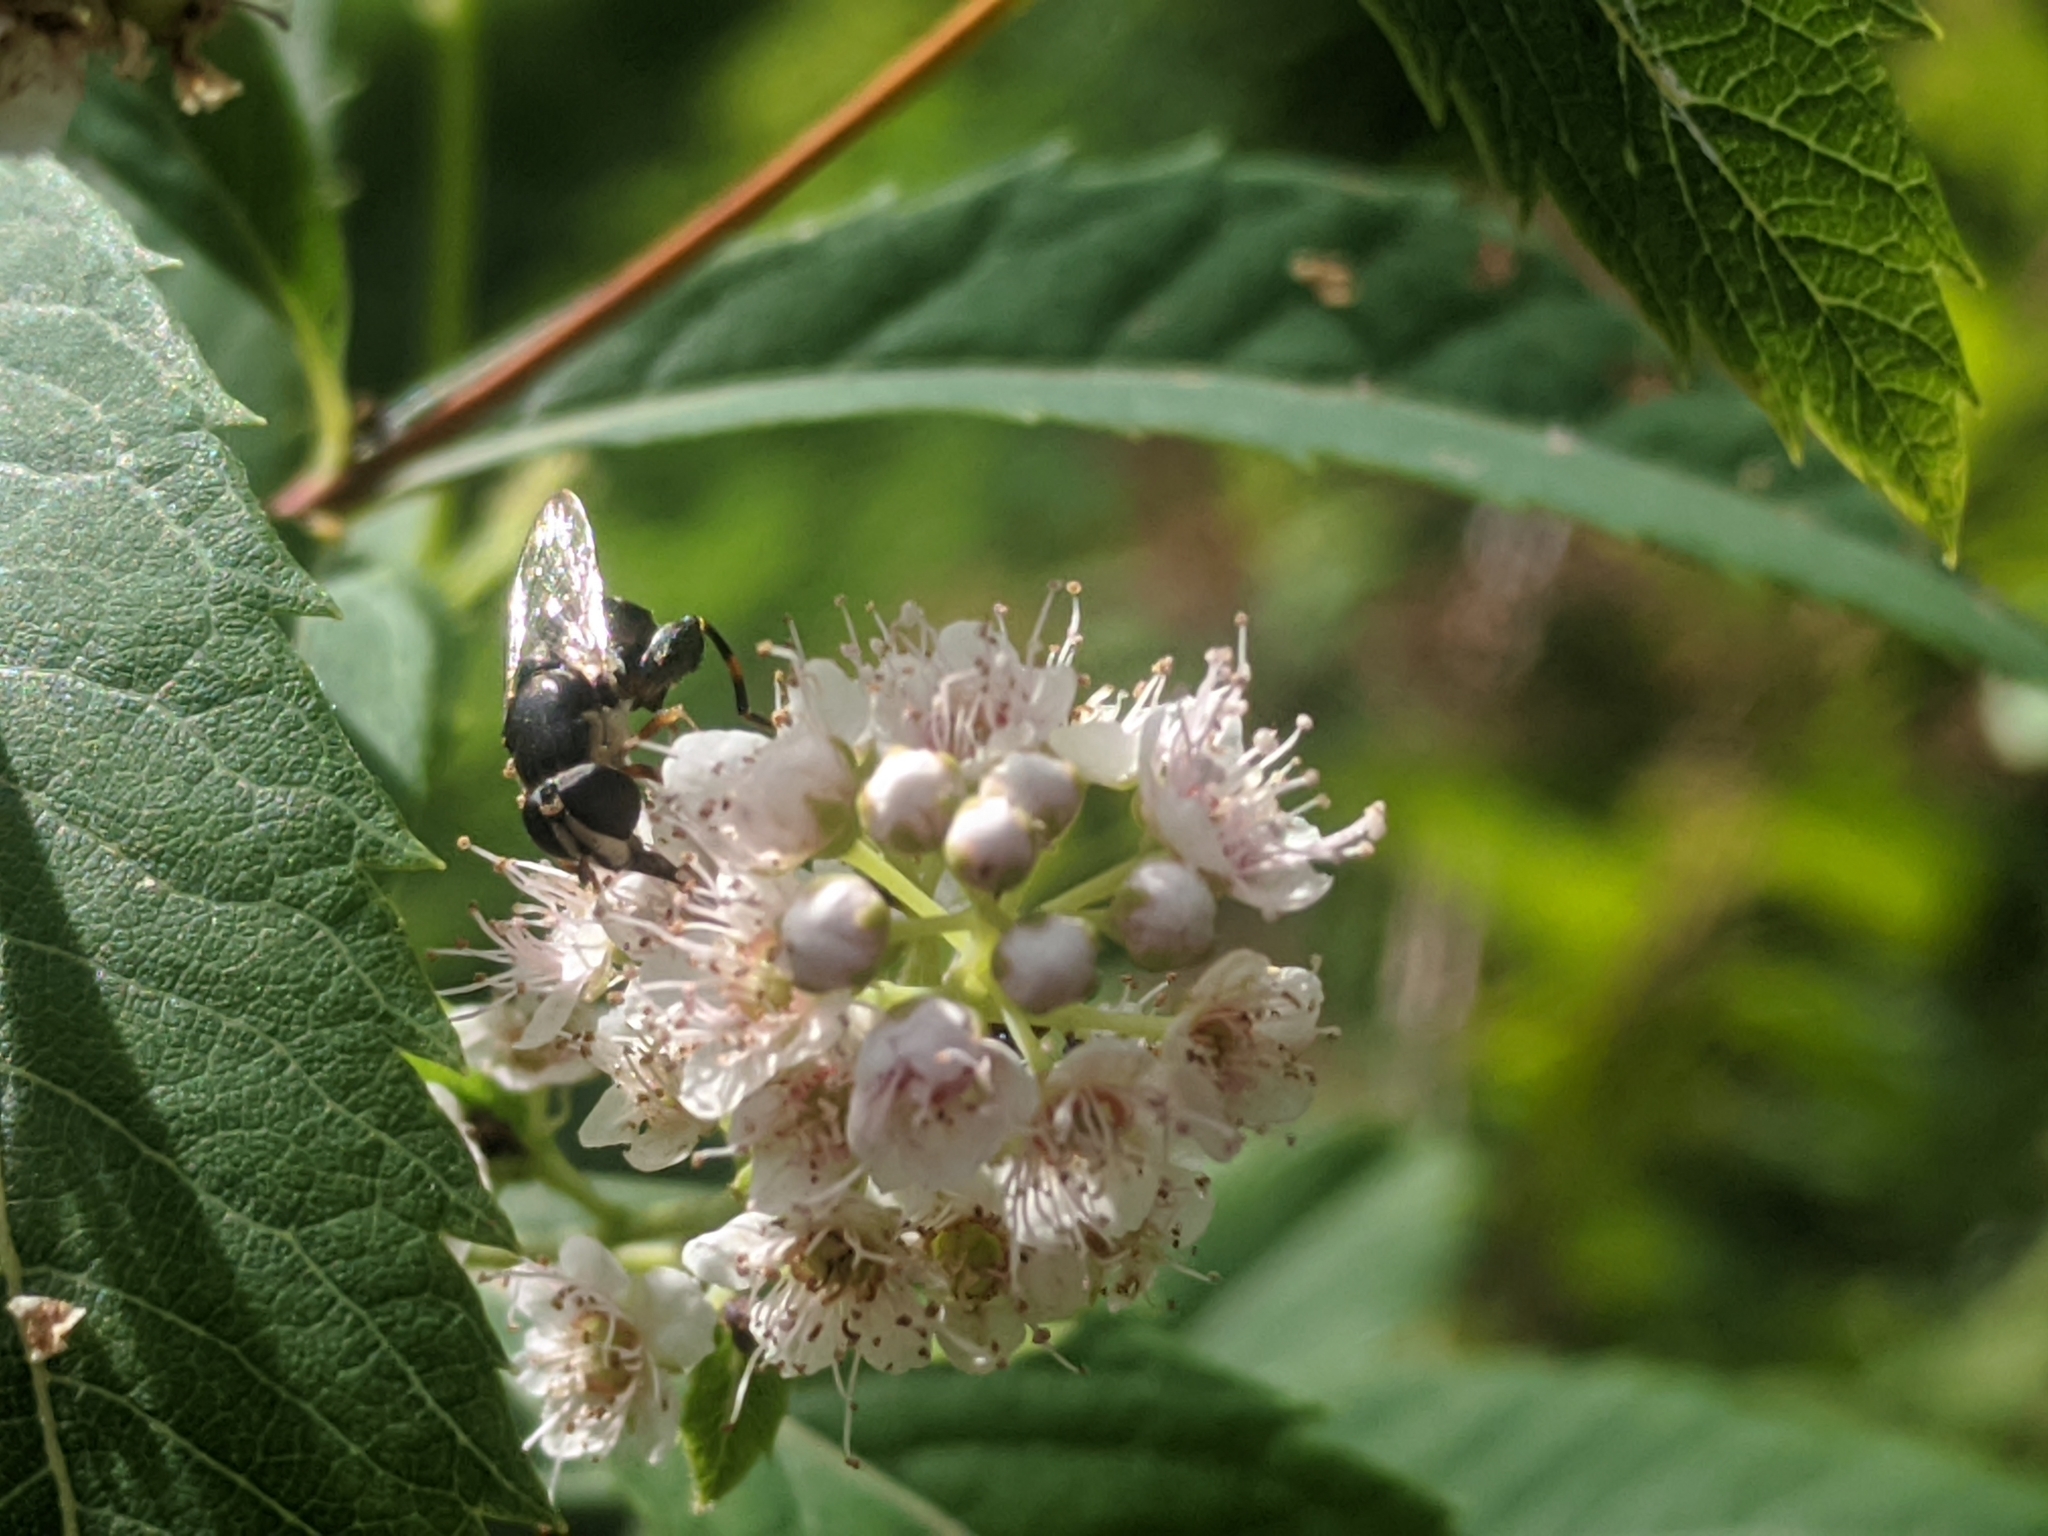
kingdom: Animalia
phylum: Arthropoda
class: Insecta
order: Diptera
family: Syrphidae
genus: Syritta
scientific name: Syritta pipiens
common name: Hover fly
